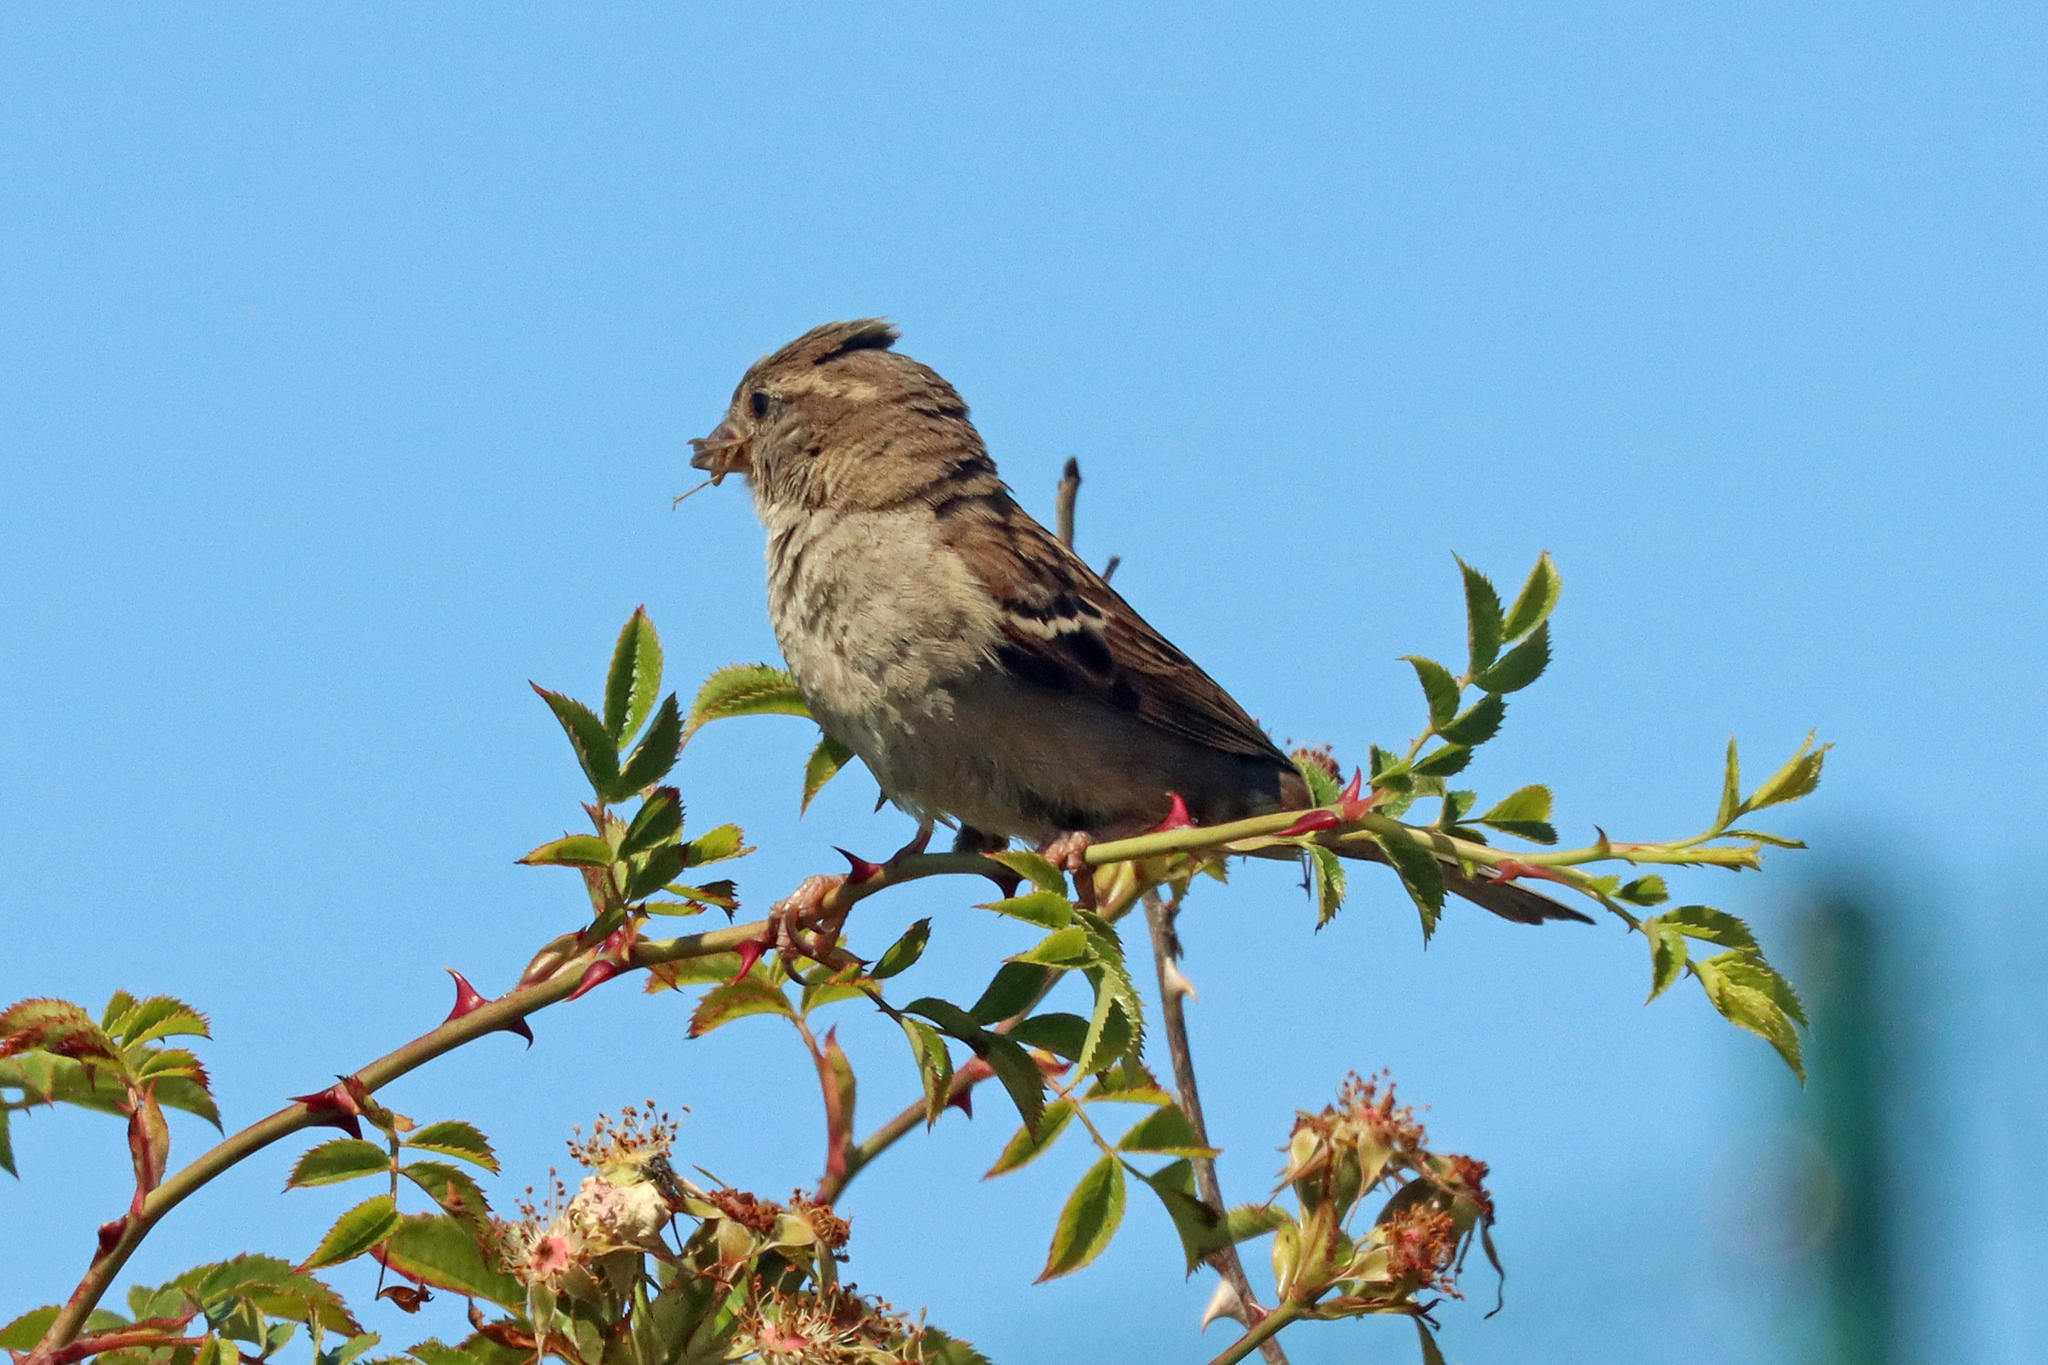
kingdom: Animalia
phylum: Chordata
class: Aves
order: Passeriformes
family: Passeridae
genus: Passer
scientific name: Passer domesticus
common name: House sparrow
